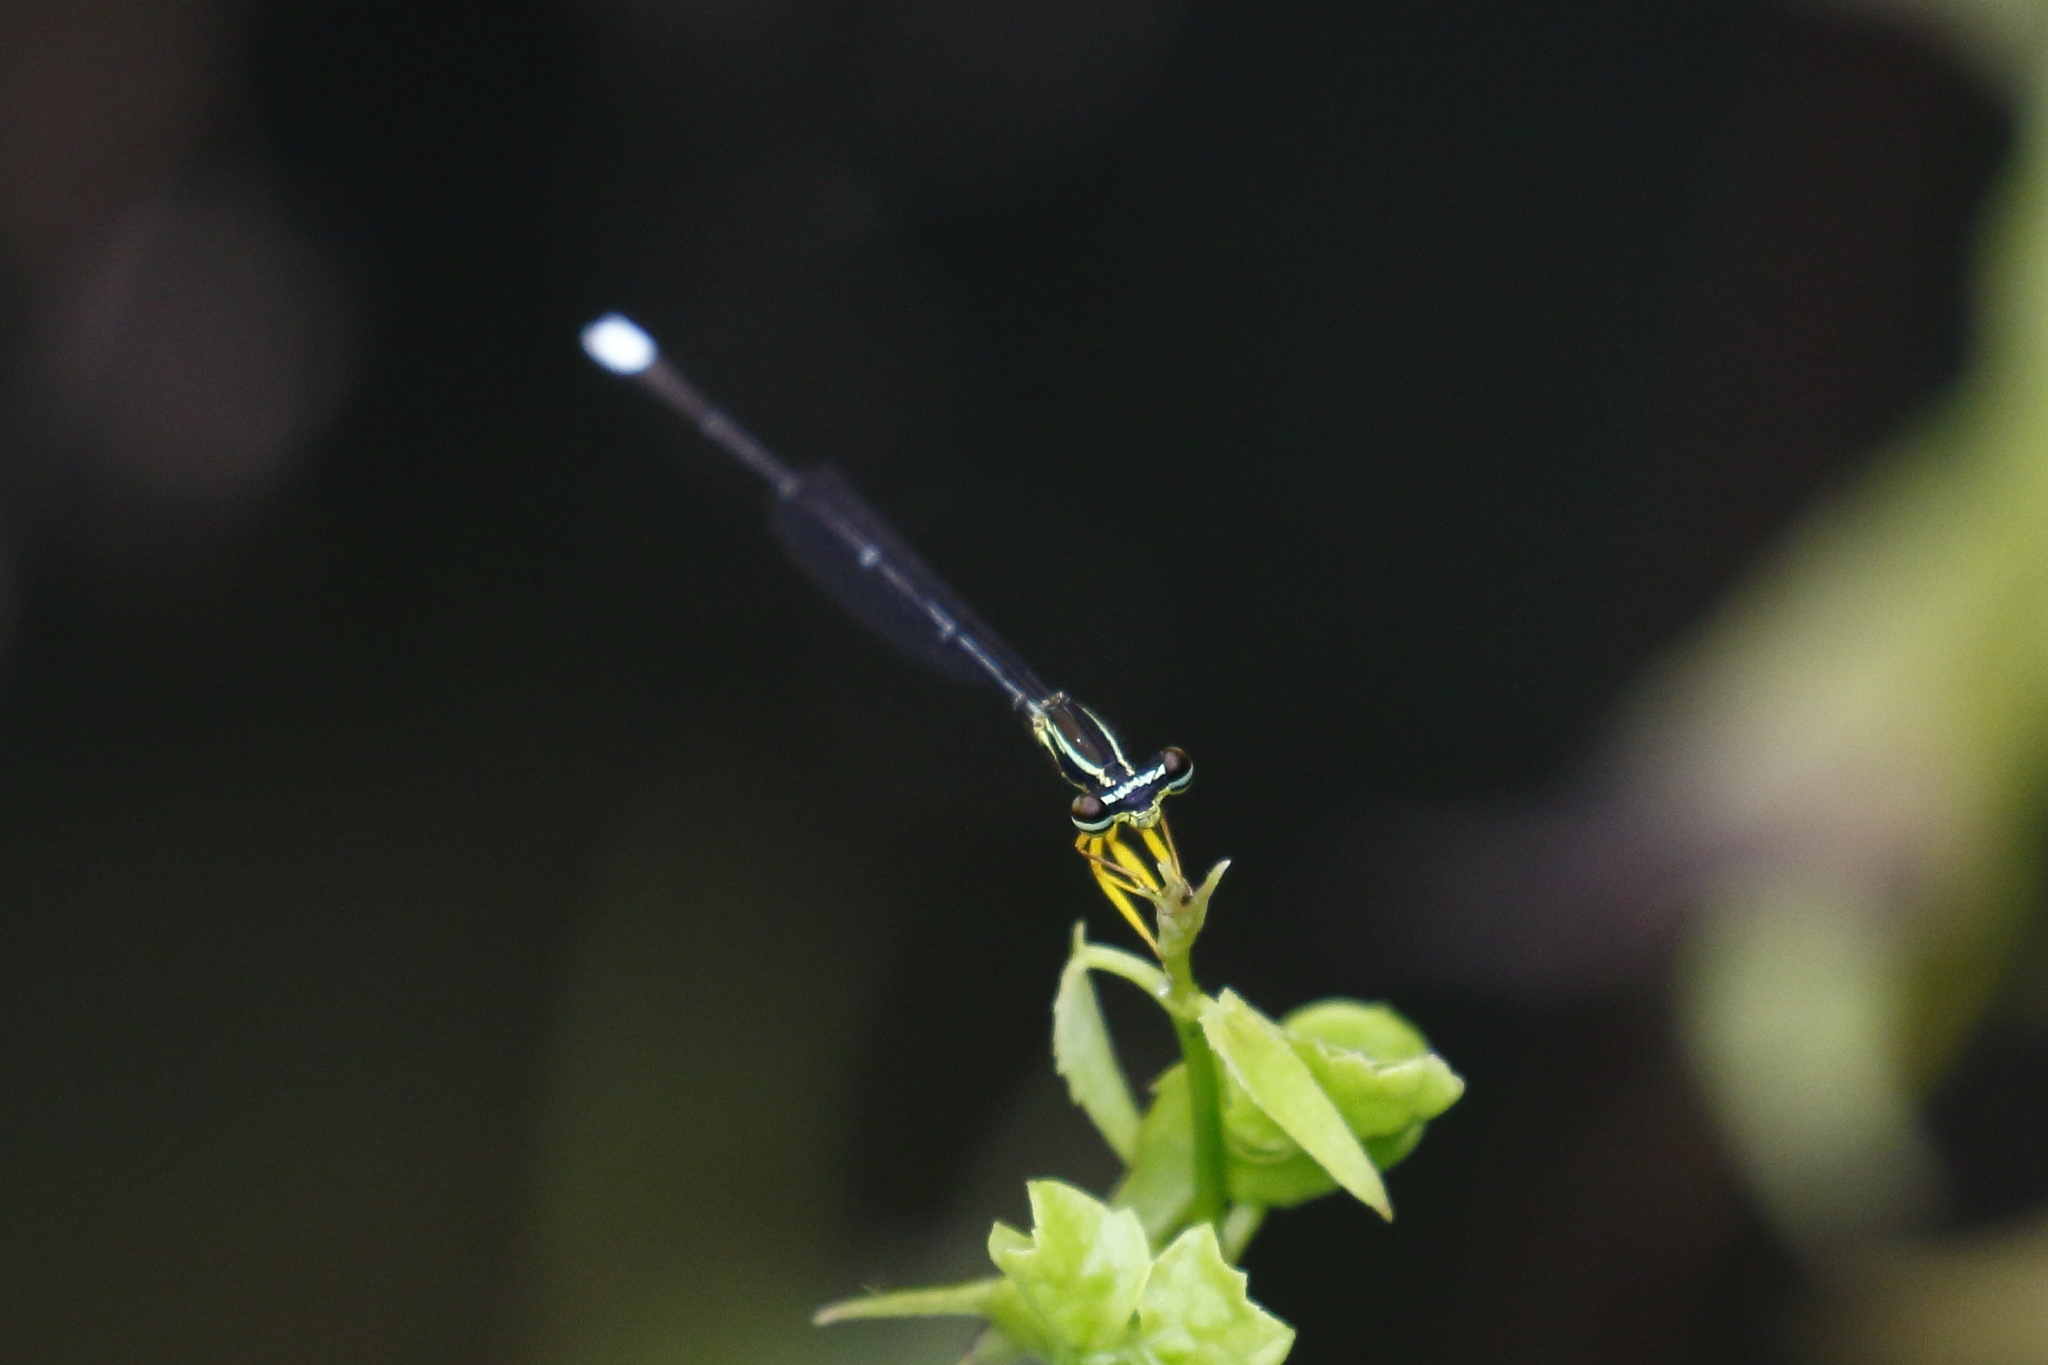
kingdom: Animalia
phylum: Arthropoda
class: Insecta
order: Odonata
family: Platycnemididae
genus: Copera
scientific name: Copera marginipes
